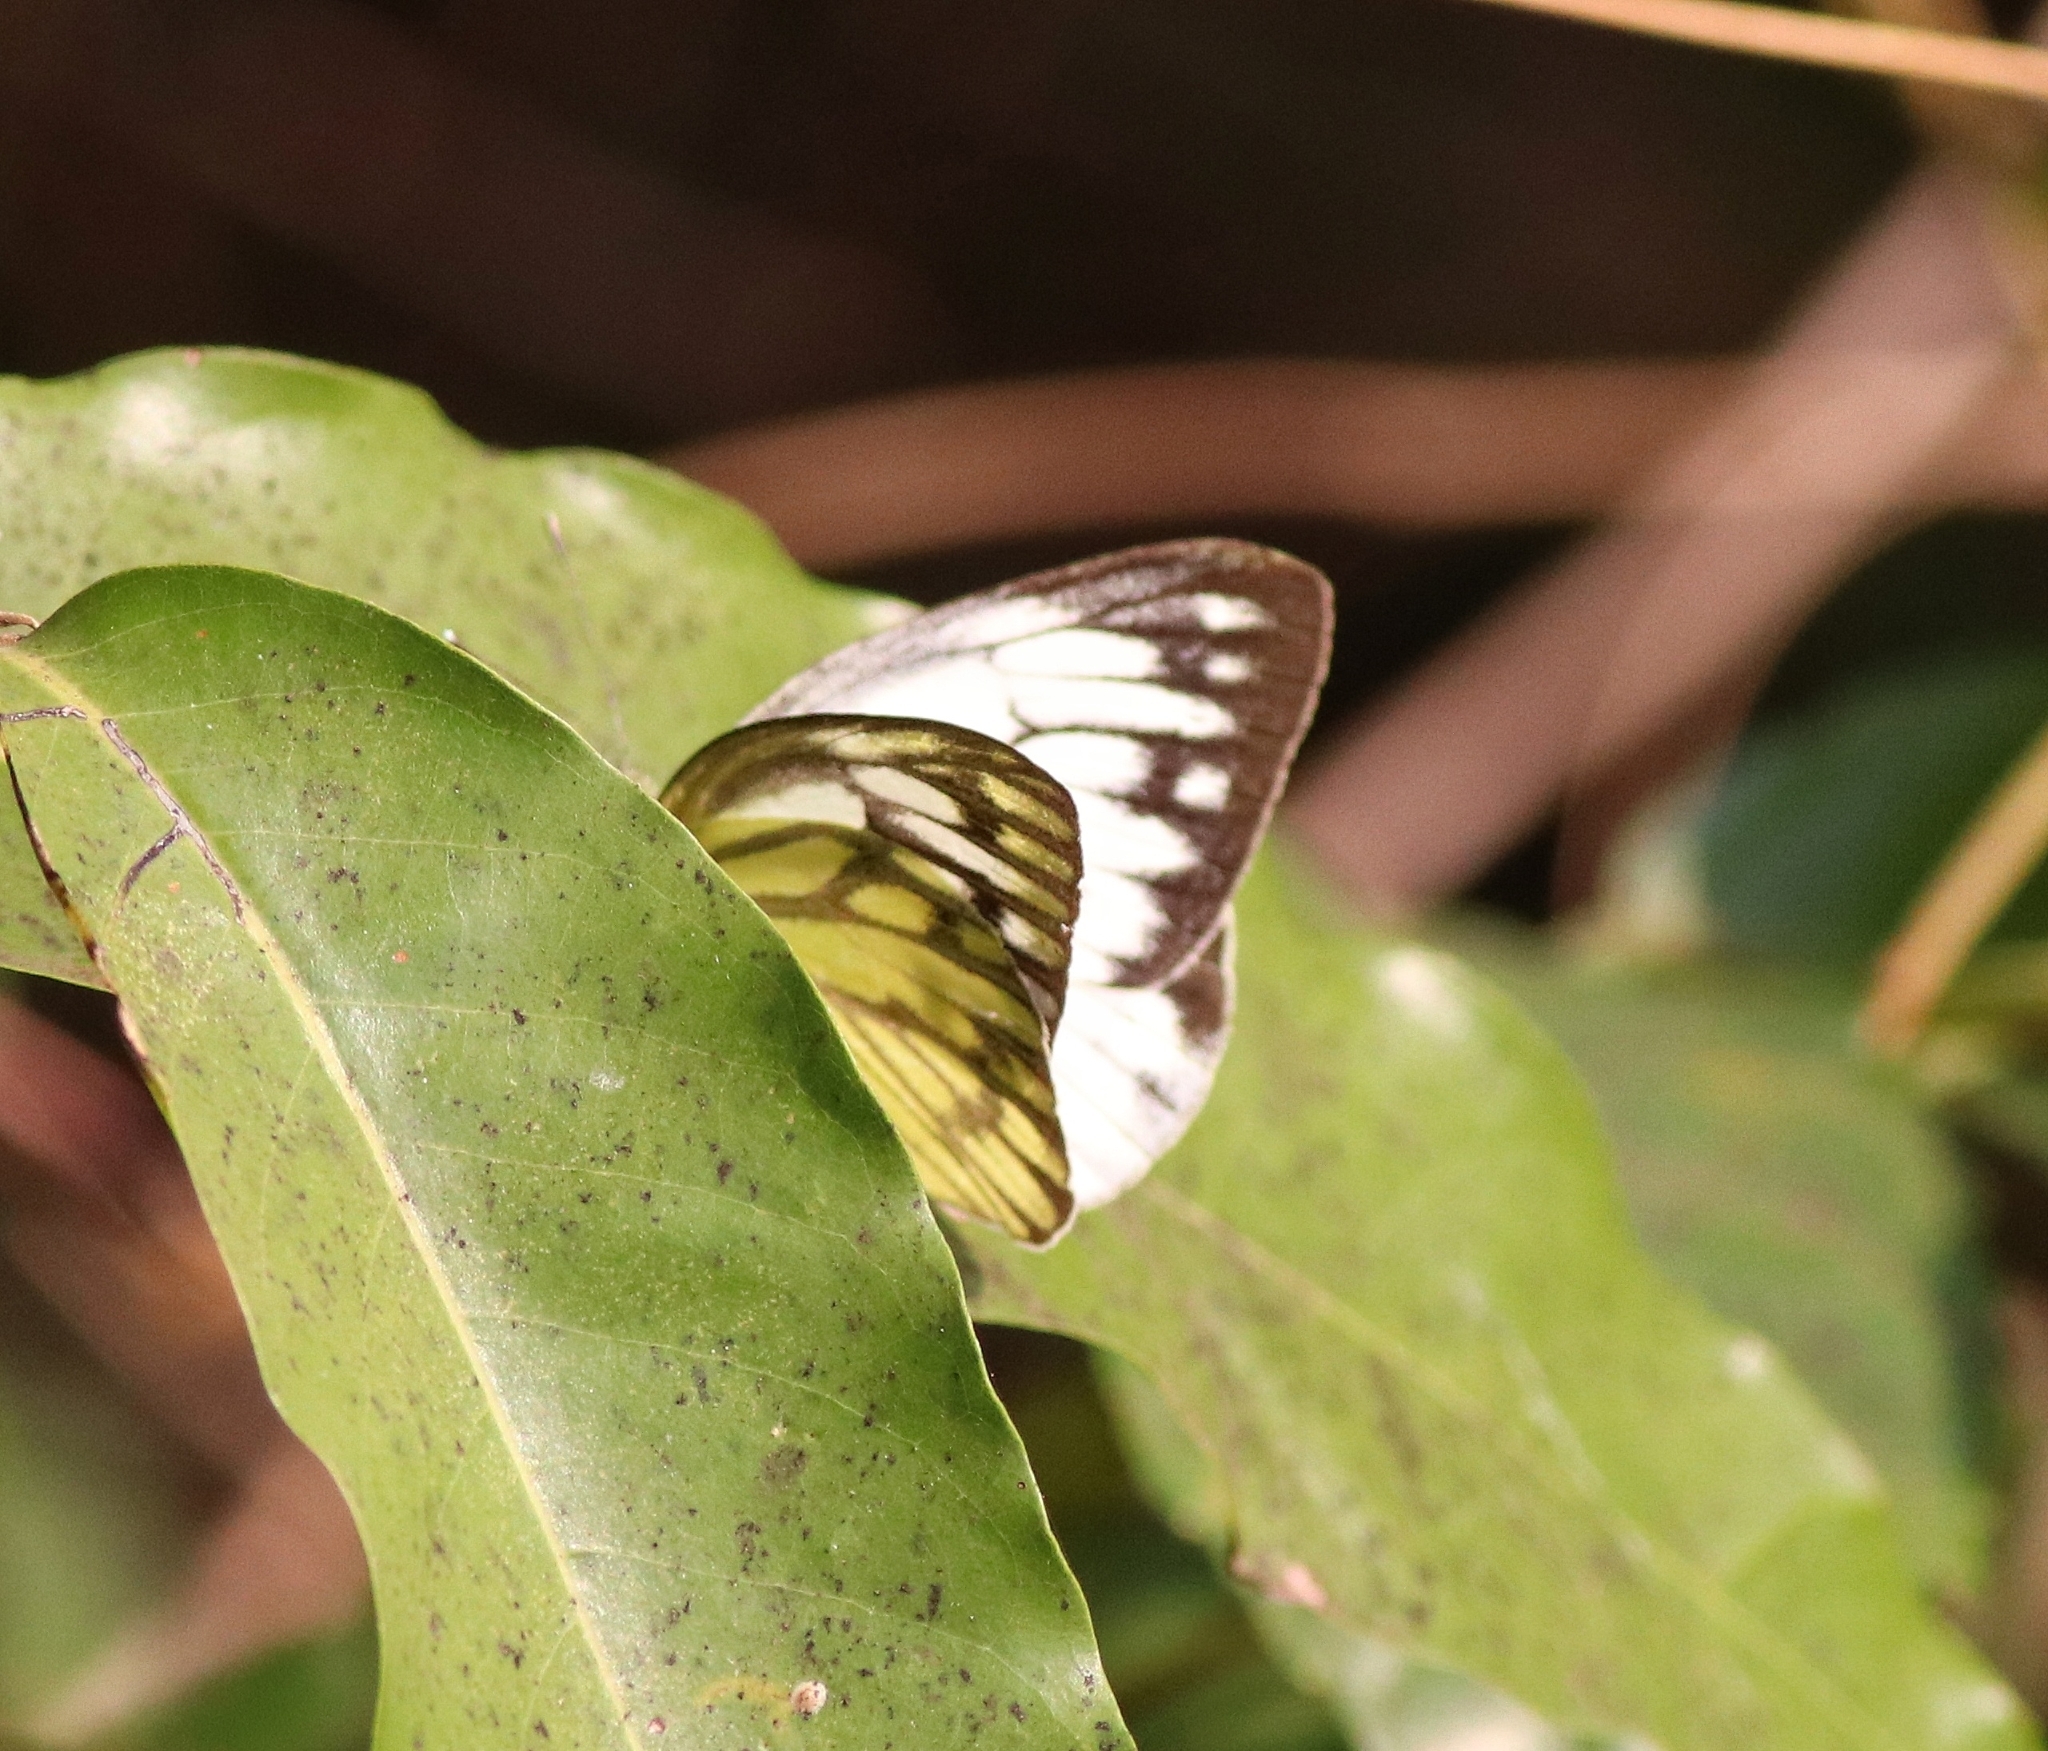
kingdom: Animalia
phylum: Arthropoda
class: Insecta
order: Lepidoptera
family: Pieridae
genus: Cepora
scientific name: Cepora nerissa
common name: Common gull
